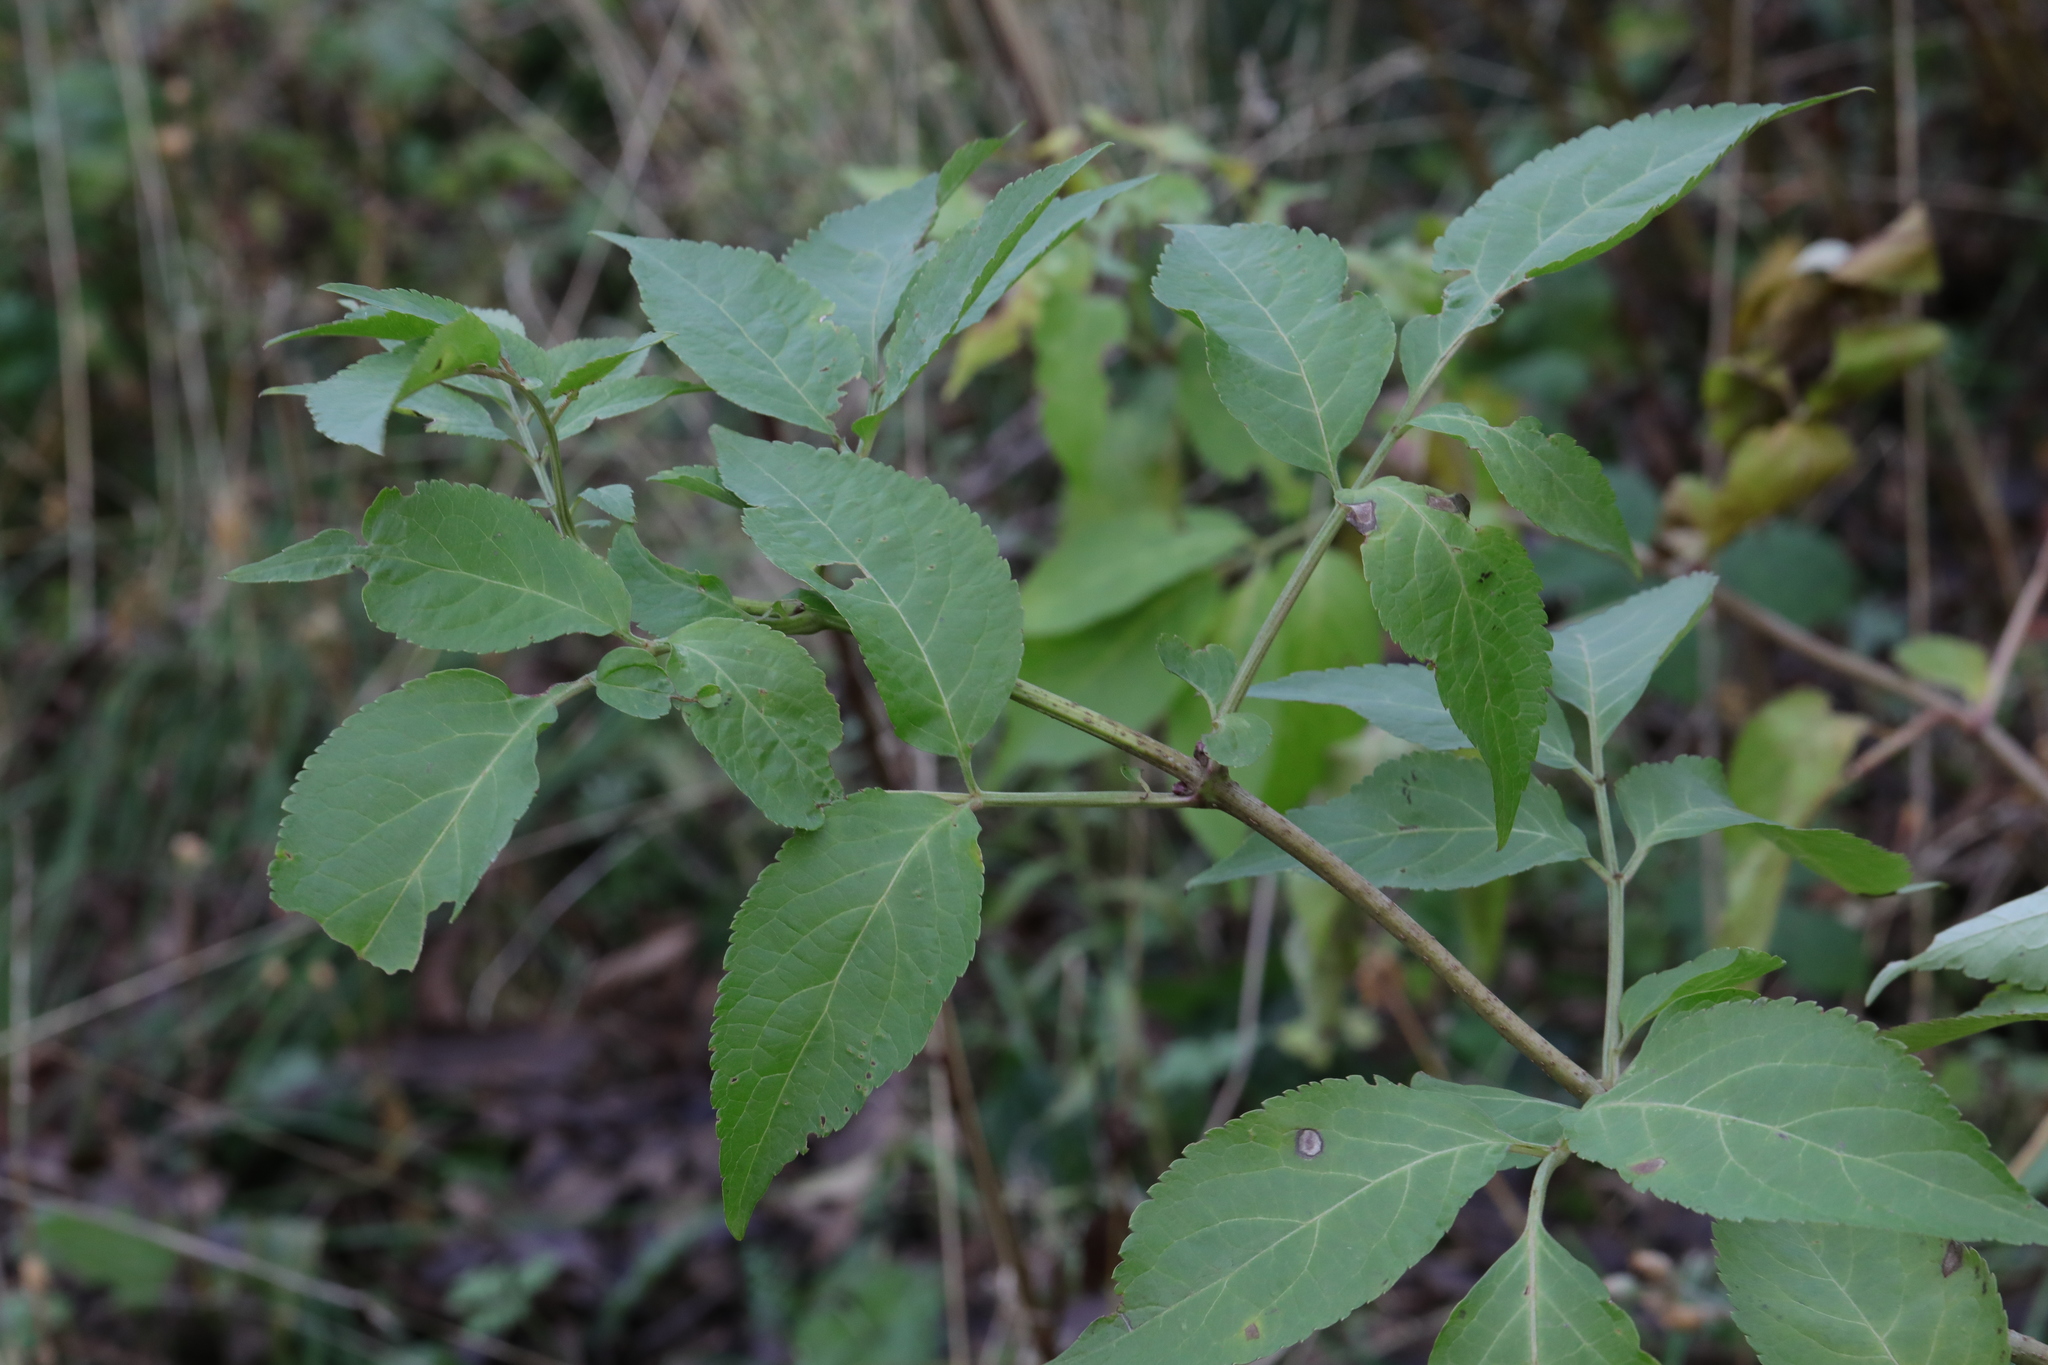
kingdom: Plantae
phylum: Tracheophyta
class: Magnoliopsida
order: Dipsacales
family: Viburnaceae
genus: Sambucus
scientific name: Sambucus nigra
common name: Elder
